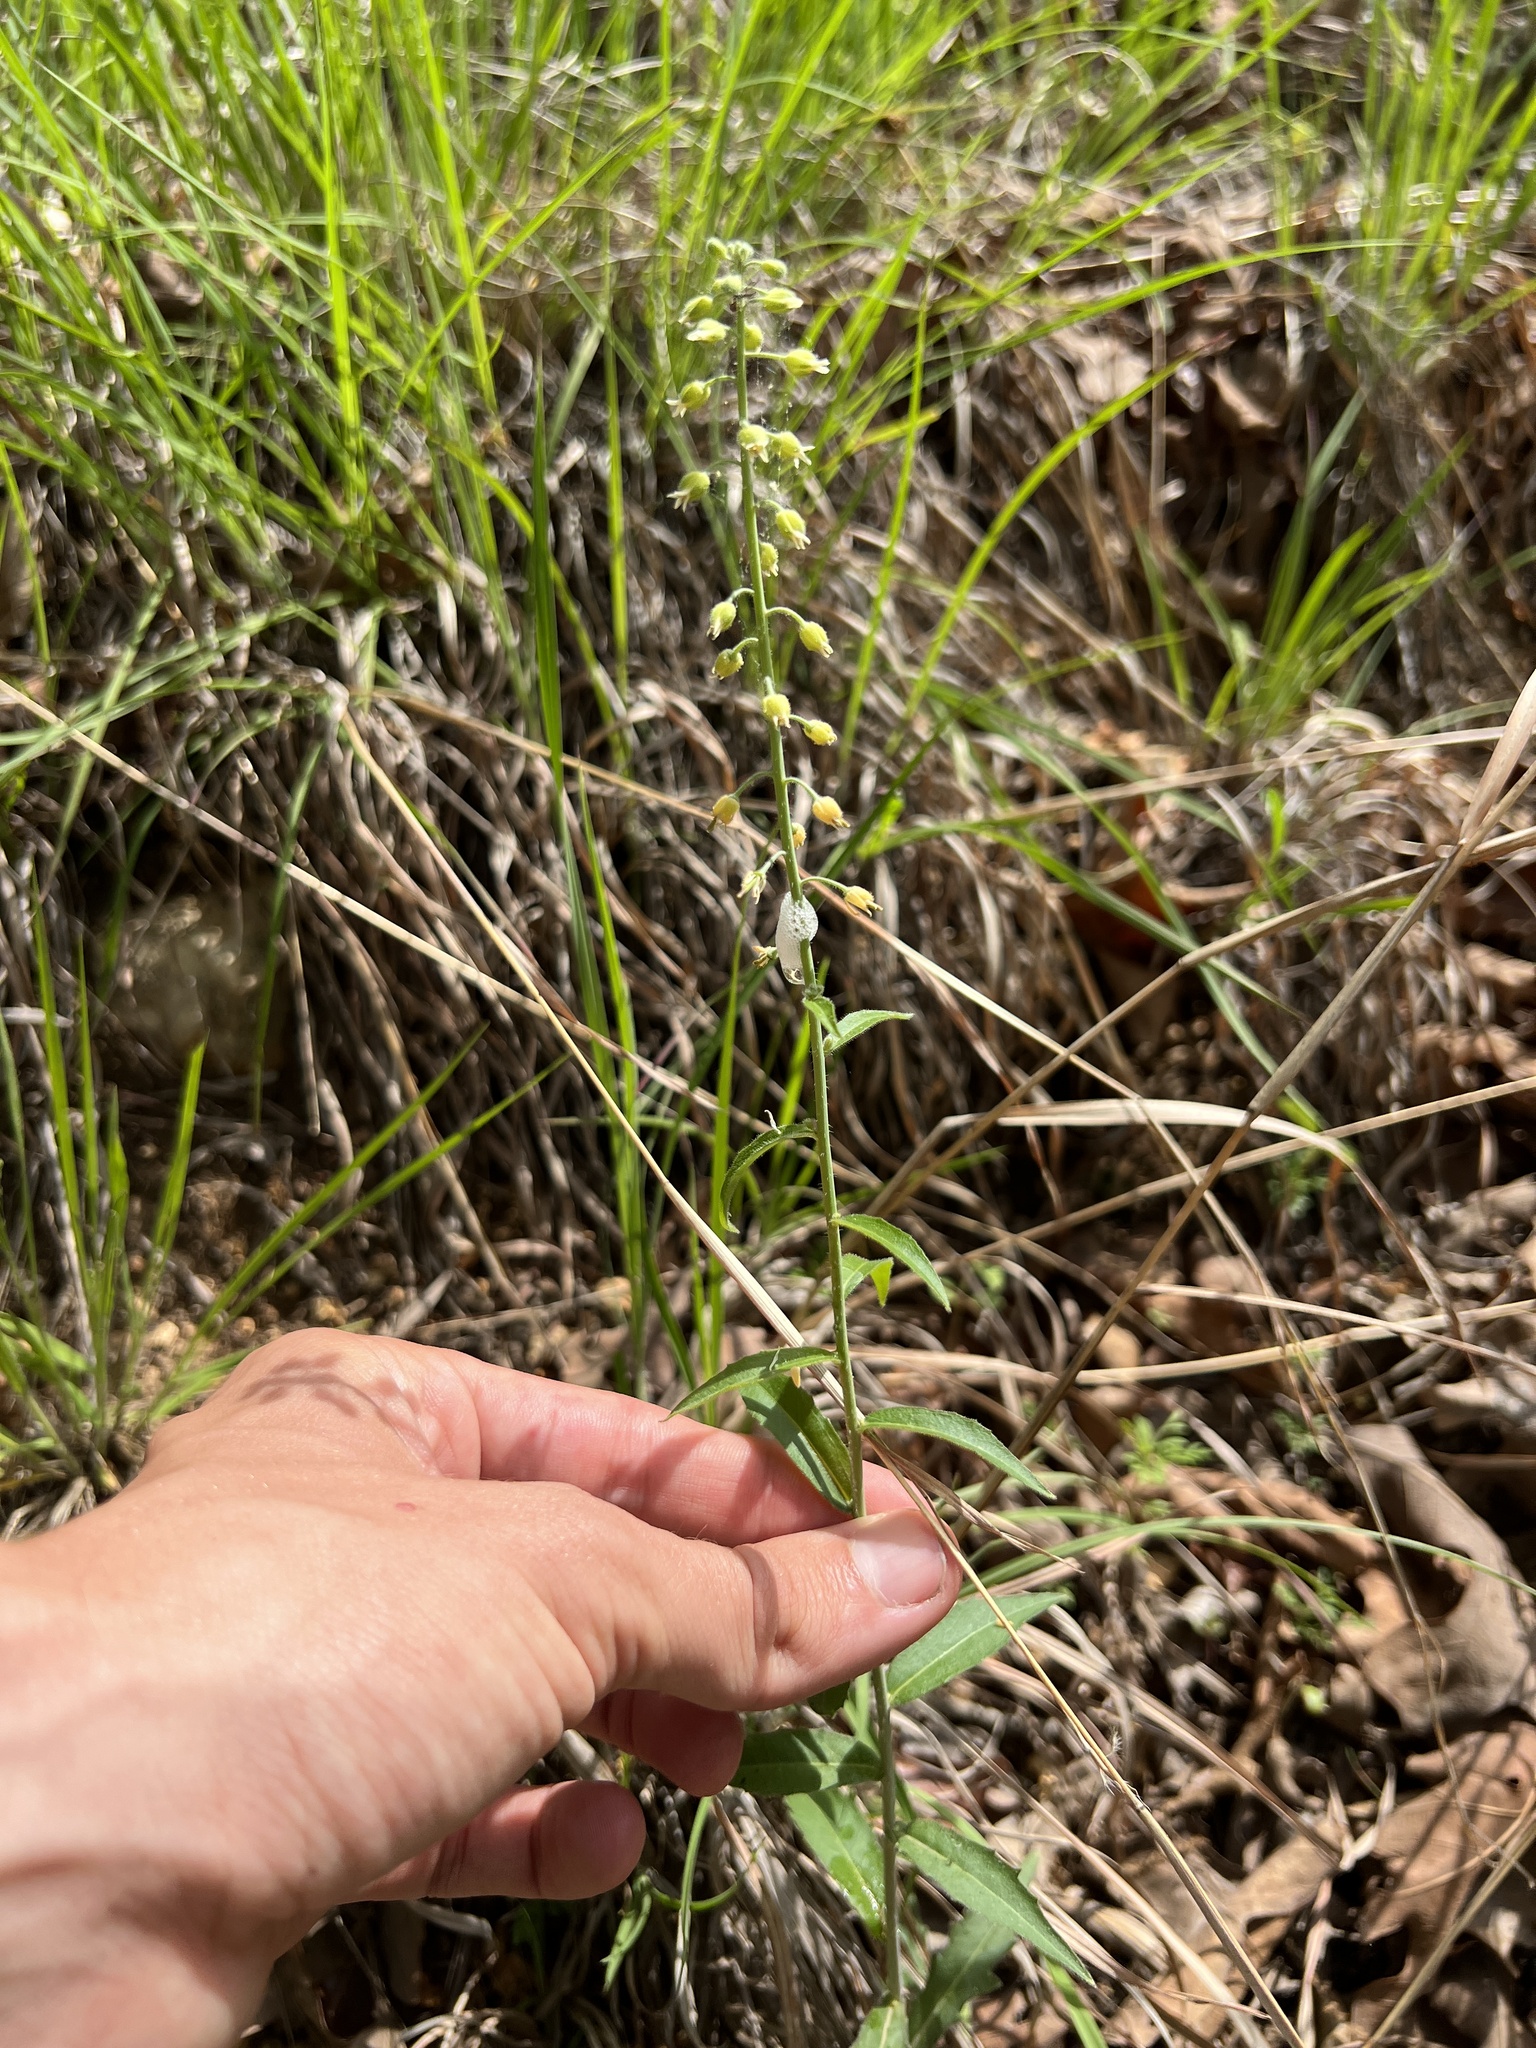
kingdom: Plantae
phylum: Tracheophyta
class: Magnoliopsida
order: Brassicales
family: Brassicaceae
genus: Borodinia
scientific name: Borodinia canadensis
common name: Sicklepod
